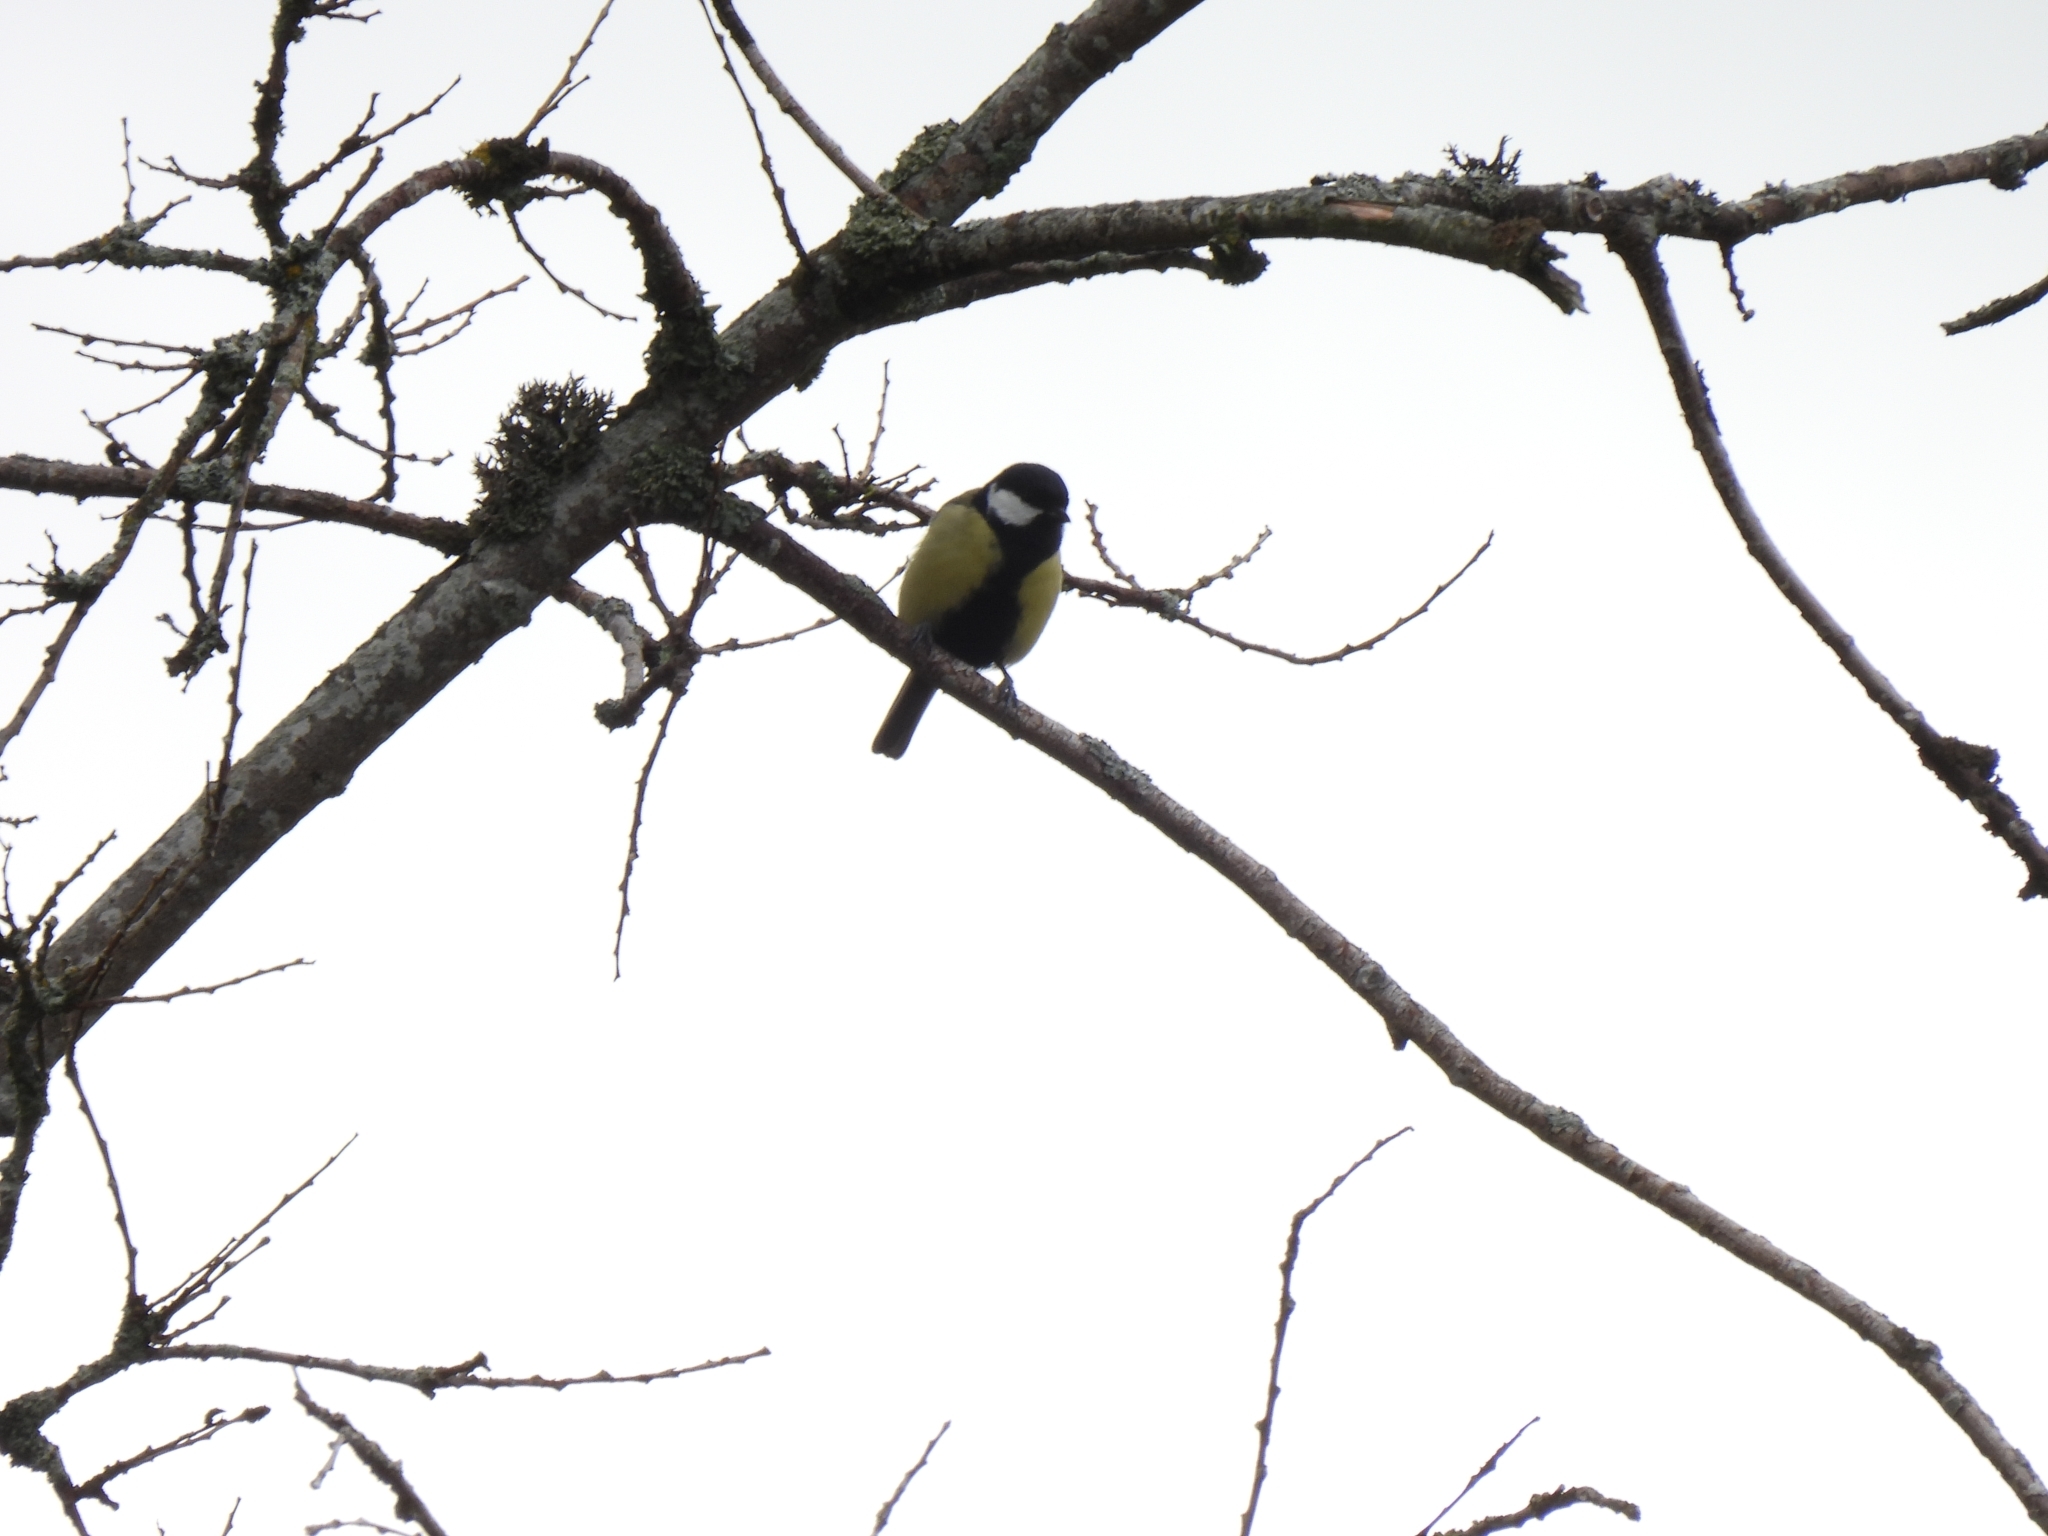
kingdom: Animalia
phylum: Chordata
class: Aves
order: Passeriformes
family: Paridae
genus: Parus
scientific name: Parus major
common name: Great tit
